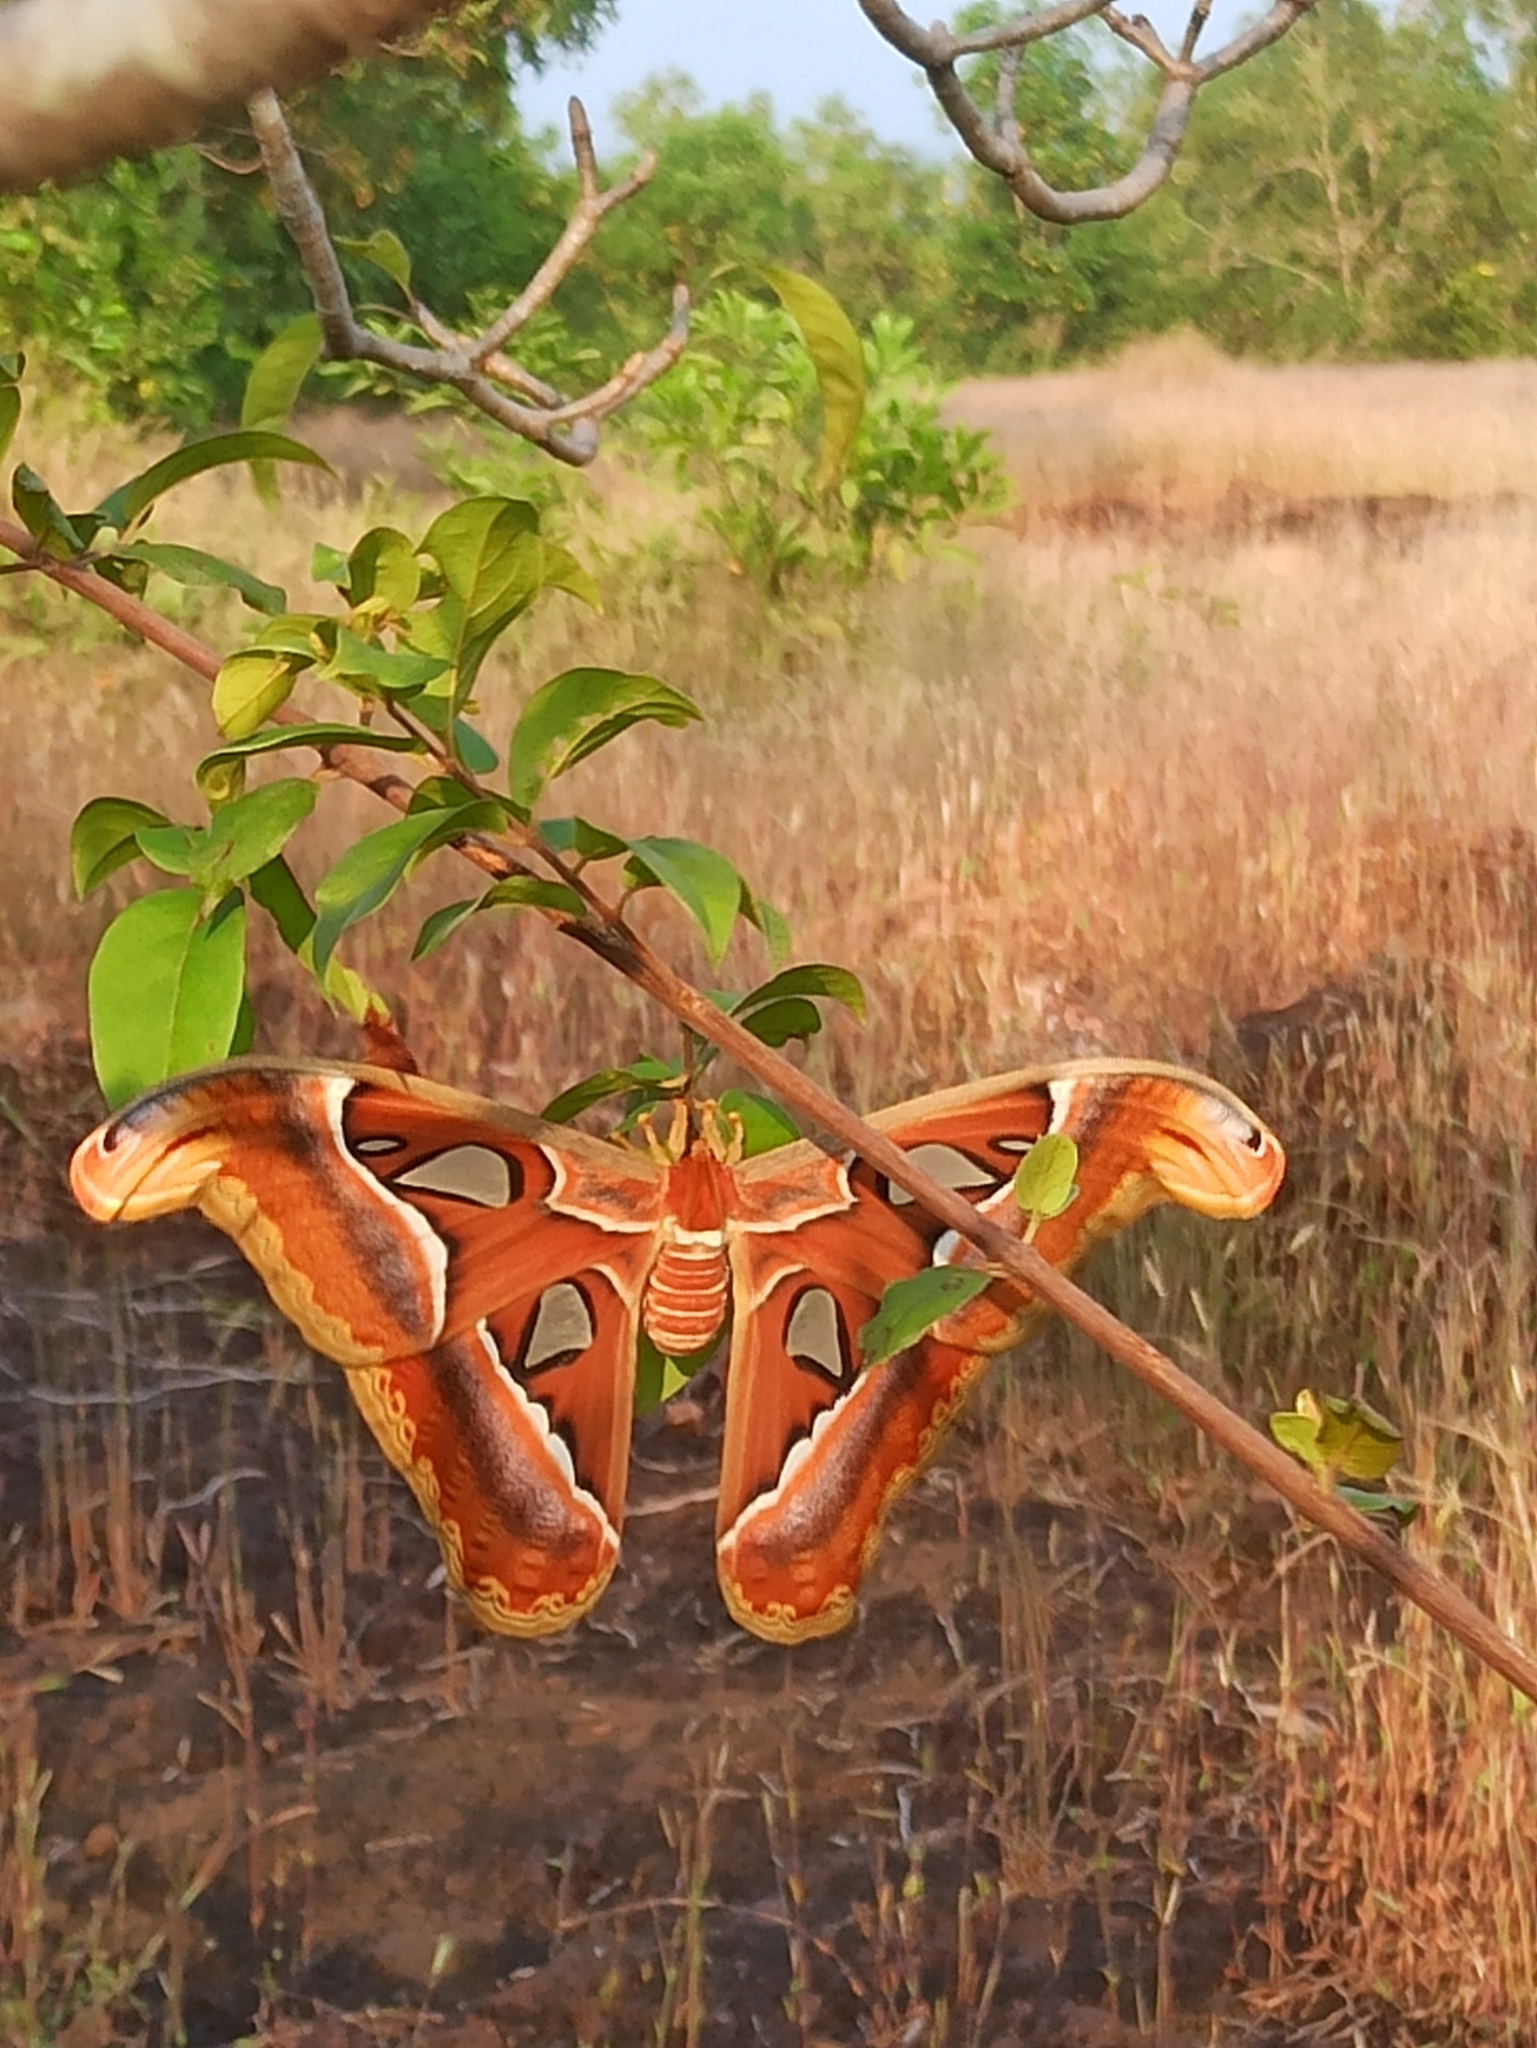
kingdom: Animalia
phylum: Arthropoda
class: Insecta
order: Lepidoptera
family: Saturniidae
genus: Attacus
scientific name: Attacus taprobanis
